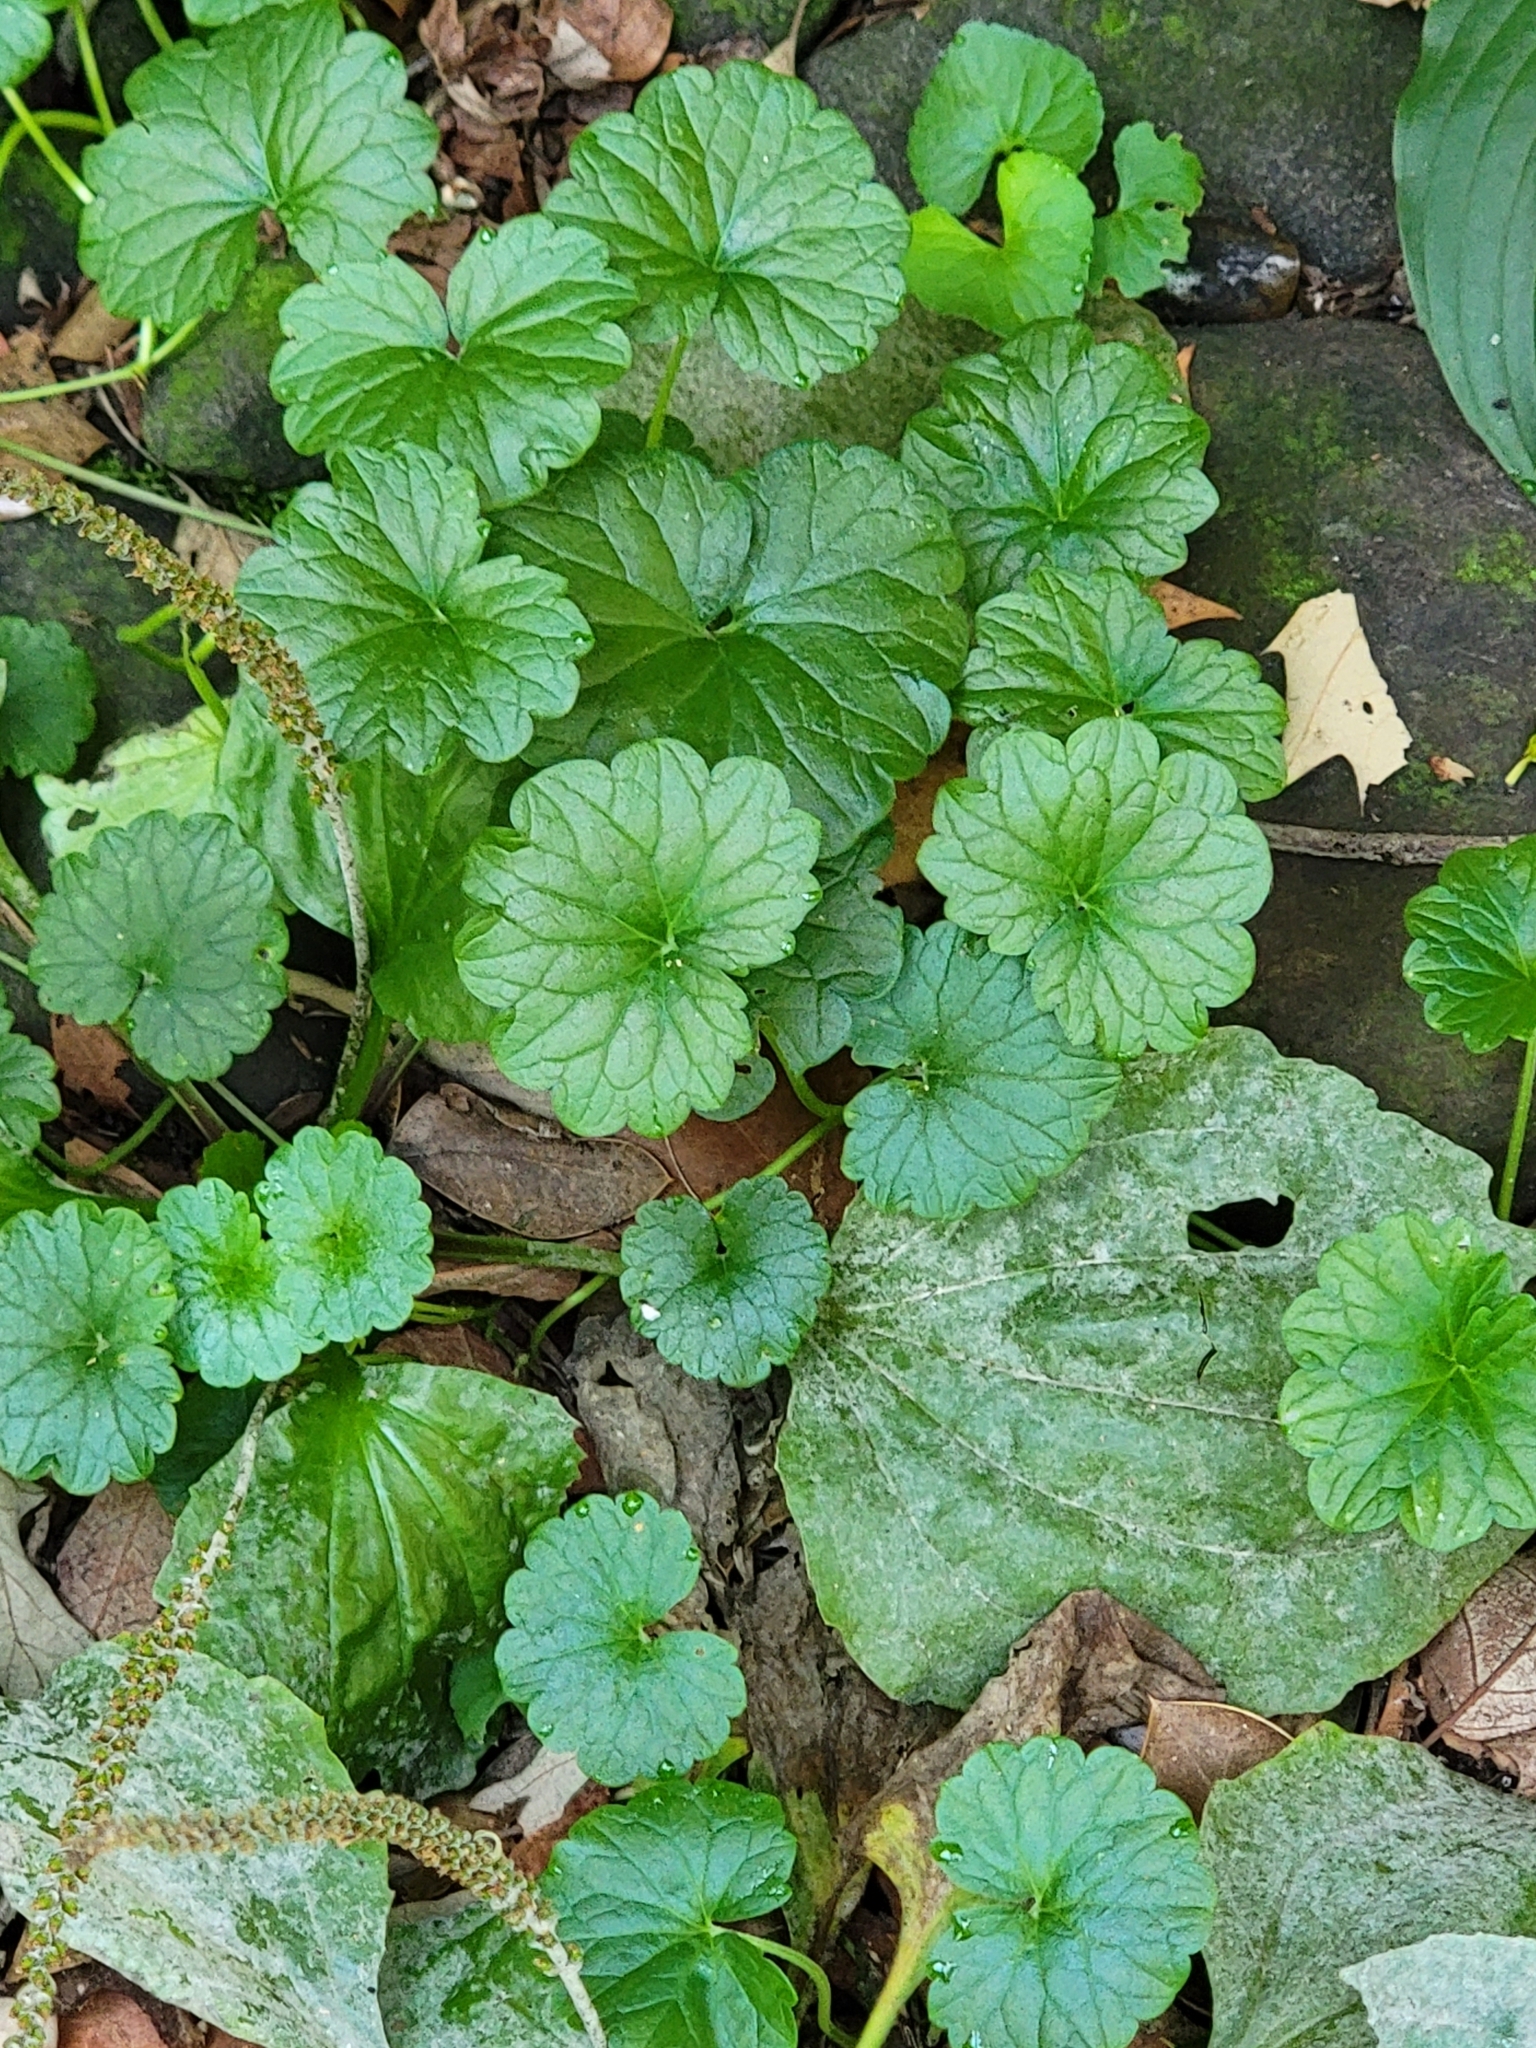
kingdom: Plantae
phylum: Tracheophyta
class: Magnoliopsida
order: Lamiales
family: Lamiaceae
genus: Glechoma
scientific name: Glechoma hederacea
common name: Ground ivy
